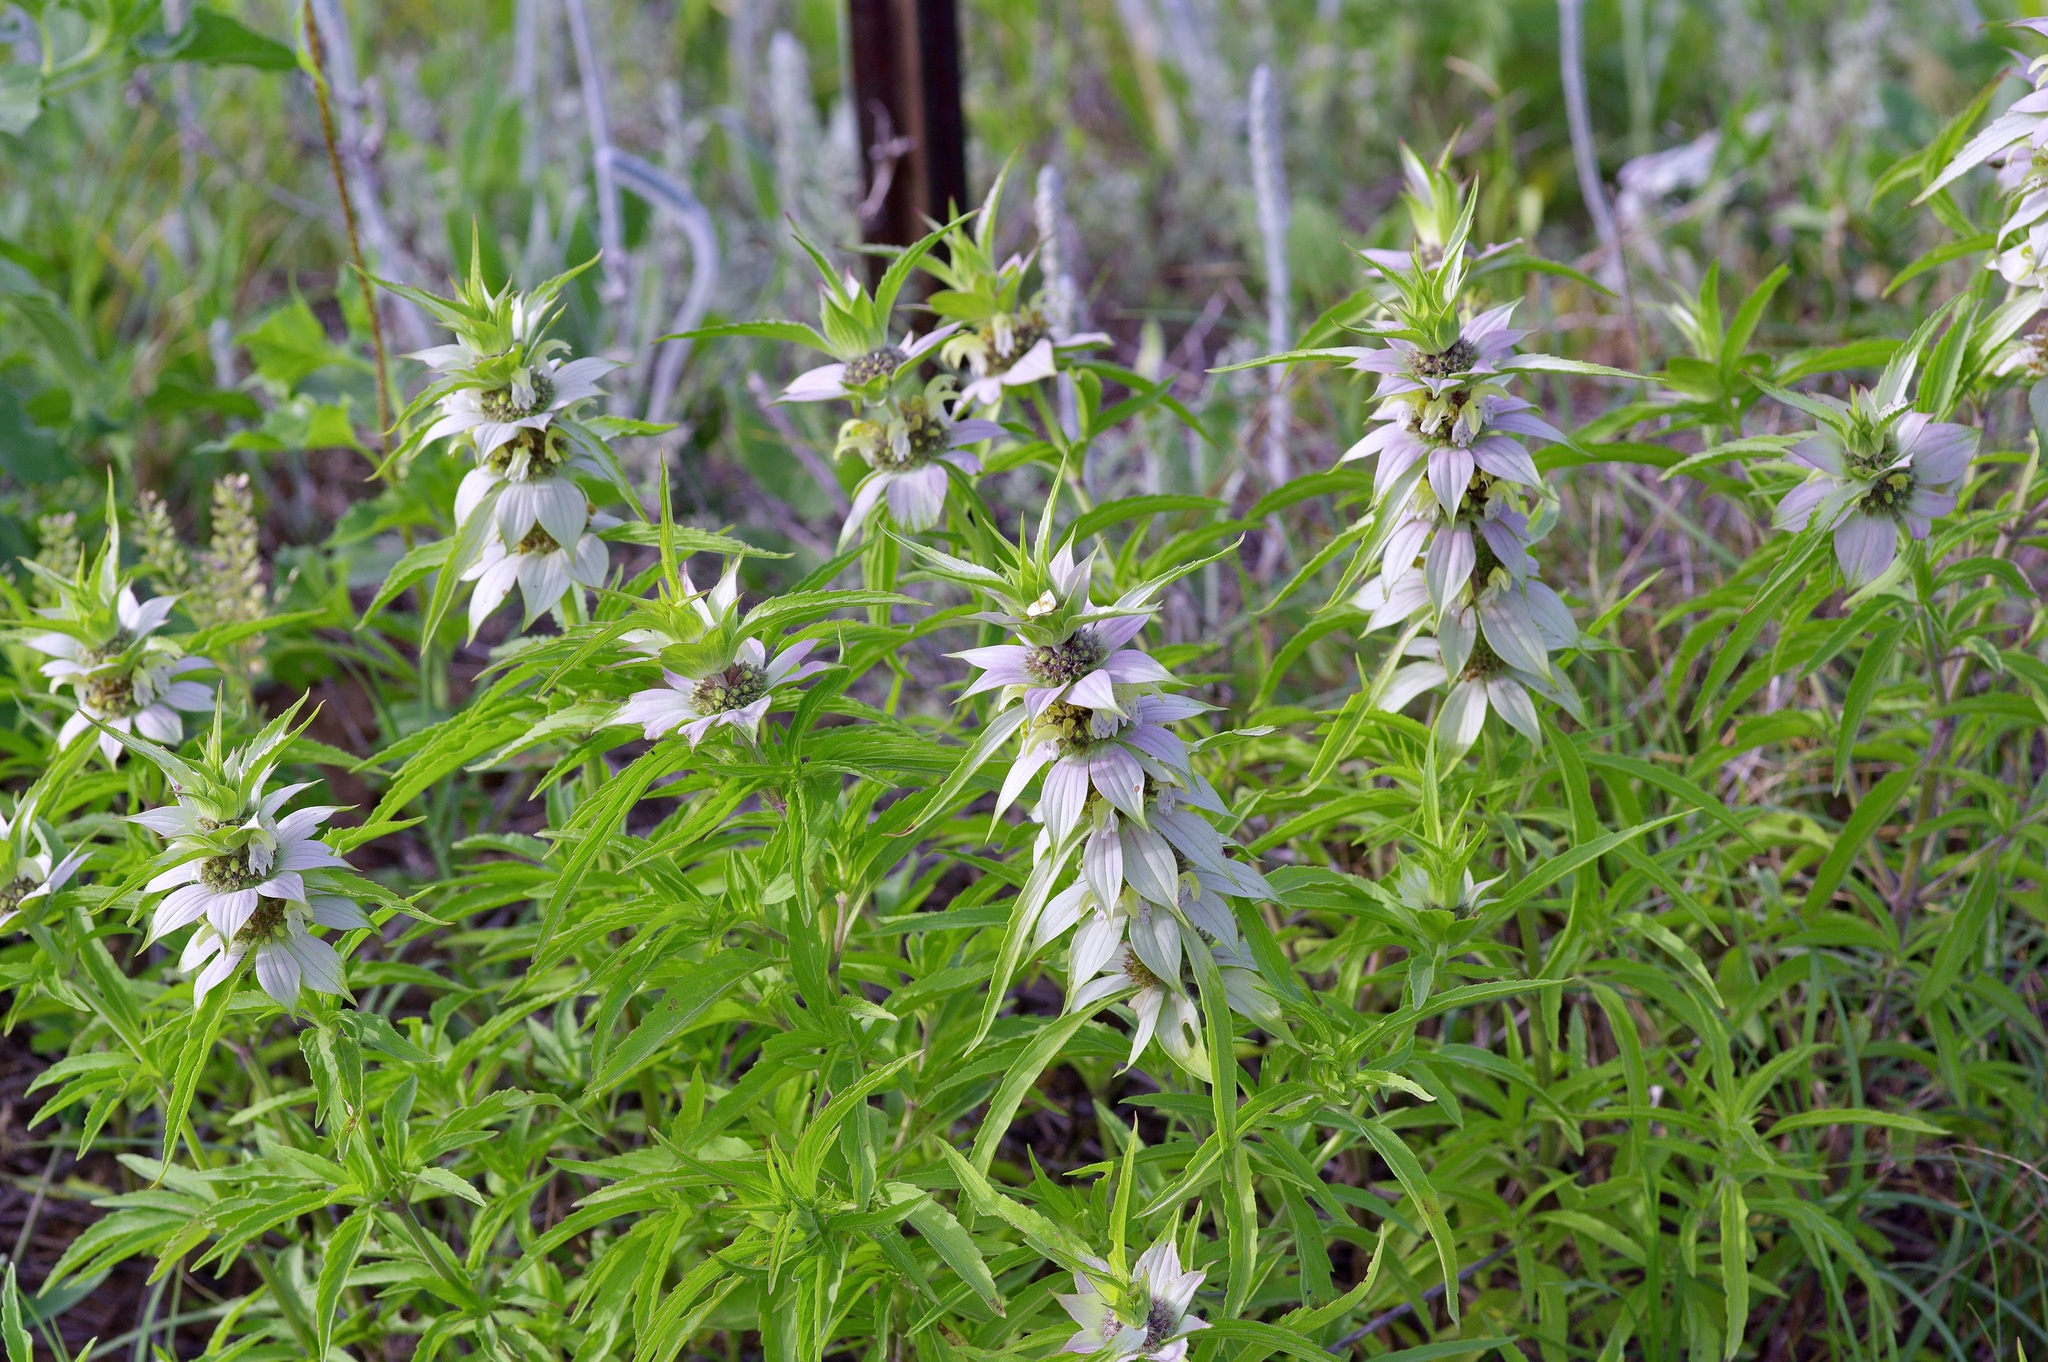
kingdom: Plantae
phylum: Tracheophyta
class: Magnoliopsida
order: Lamiales
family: Lamiaceae
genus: Monarda
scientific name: Monarda punctata
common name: Dotted monarda
